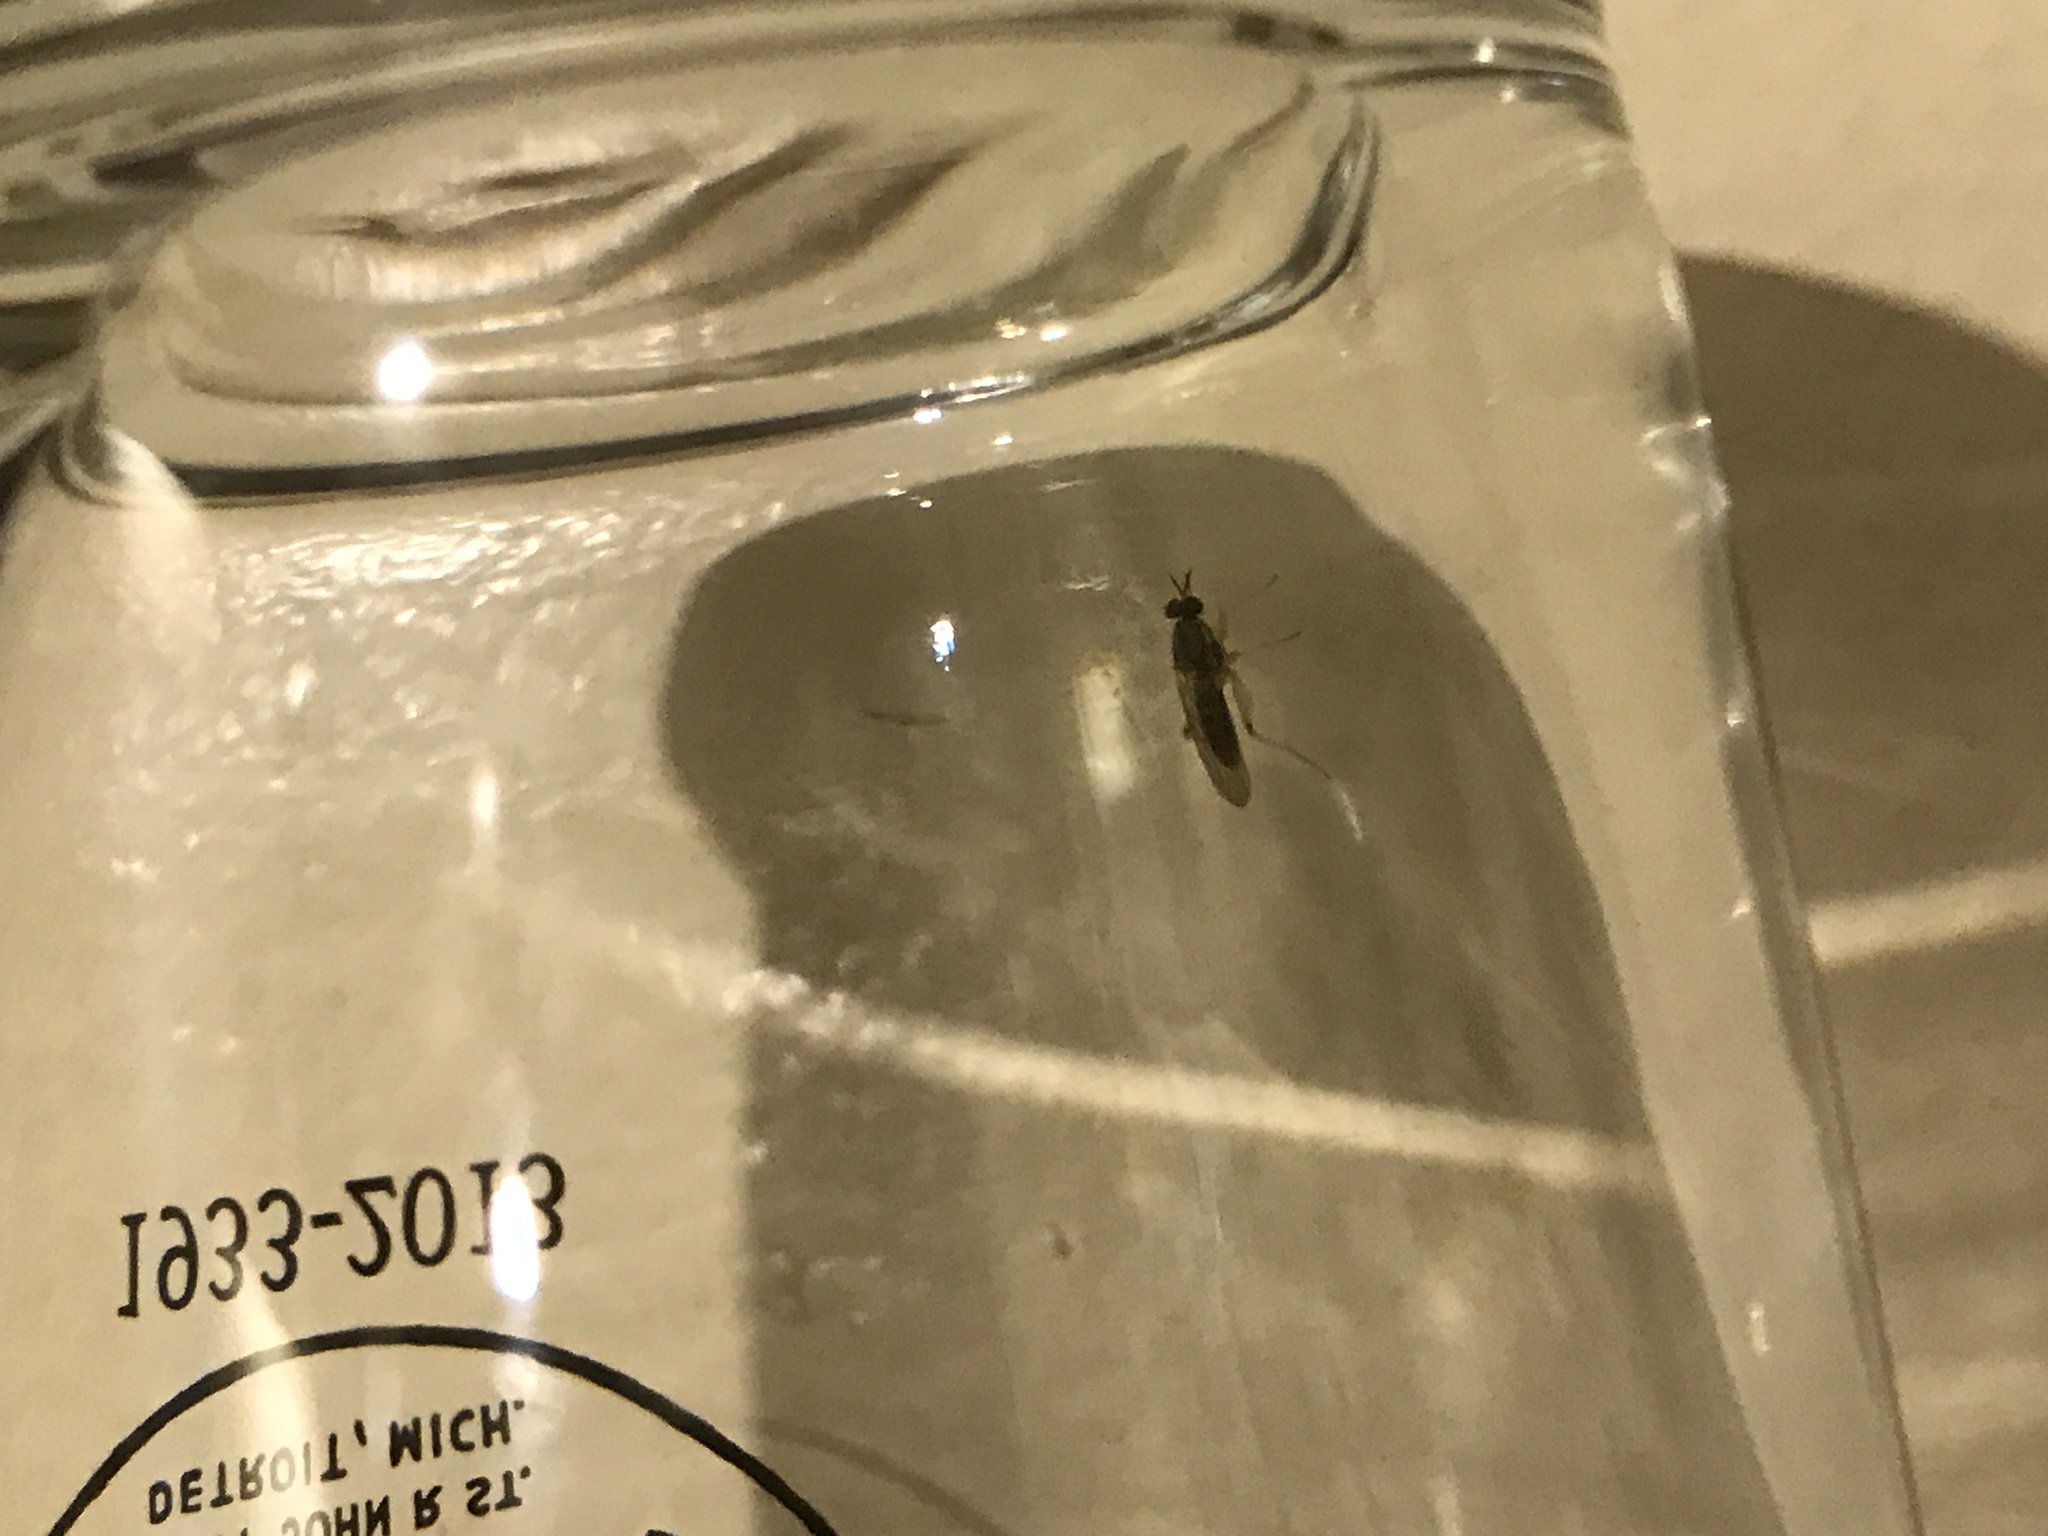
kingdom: Animalia
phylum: Arthropoda
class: Insecta
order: Diptera
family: Xylomyidae
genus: Solva
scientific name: Solva pallipes
